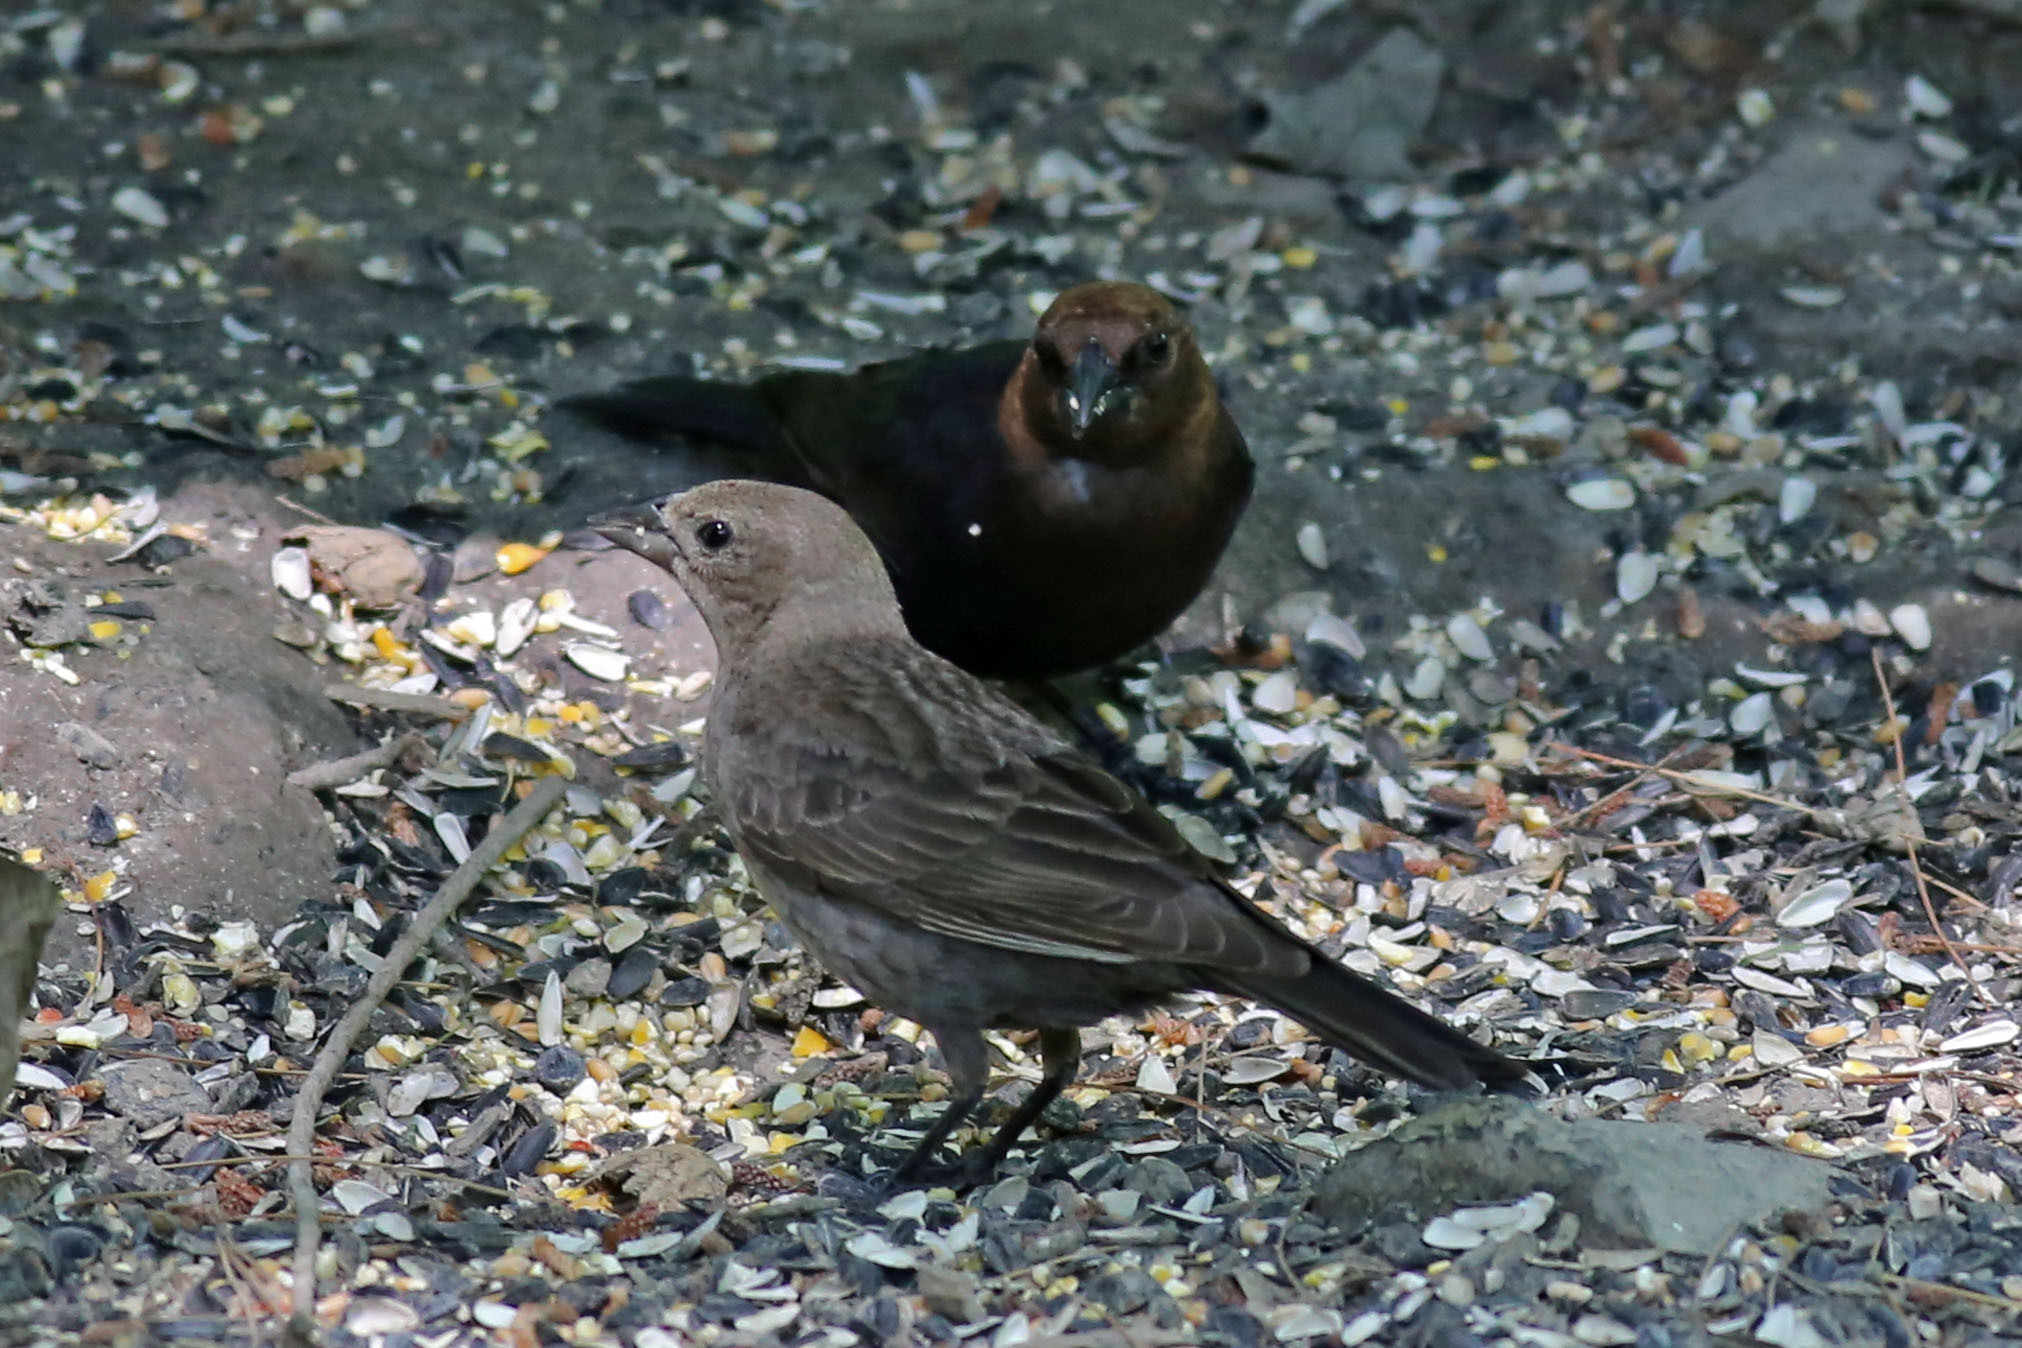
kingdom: Animalia
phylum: Chordata
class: Aves
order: Passeriformes
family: Icteridae
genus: Molothrus
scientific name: Molothrus ater
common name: Brown-headed cowbird
